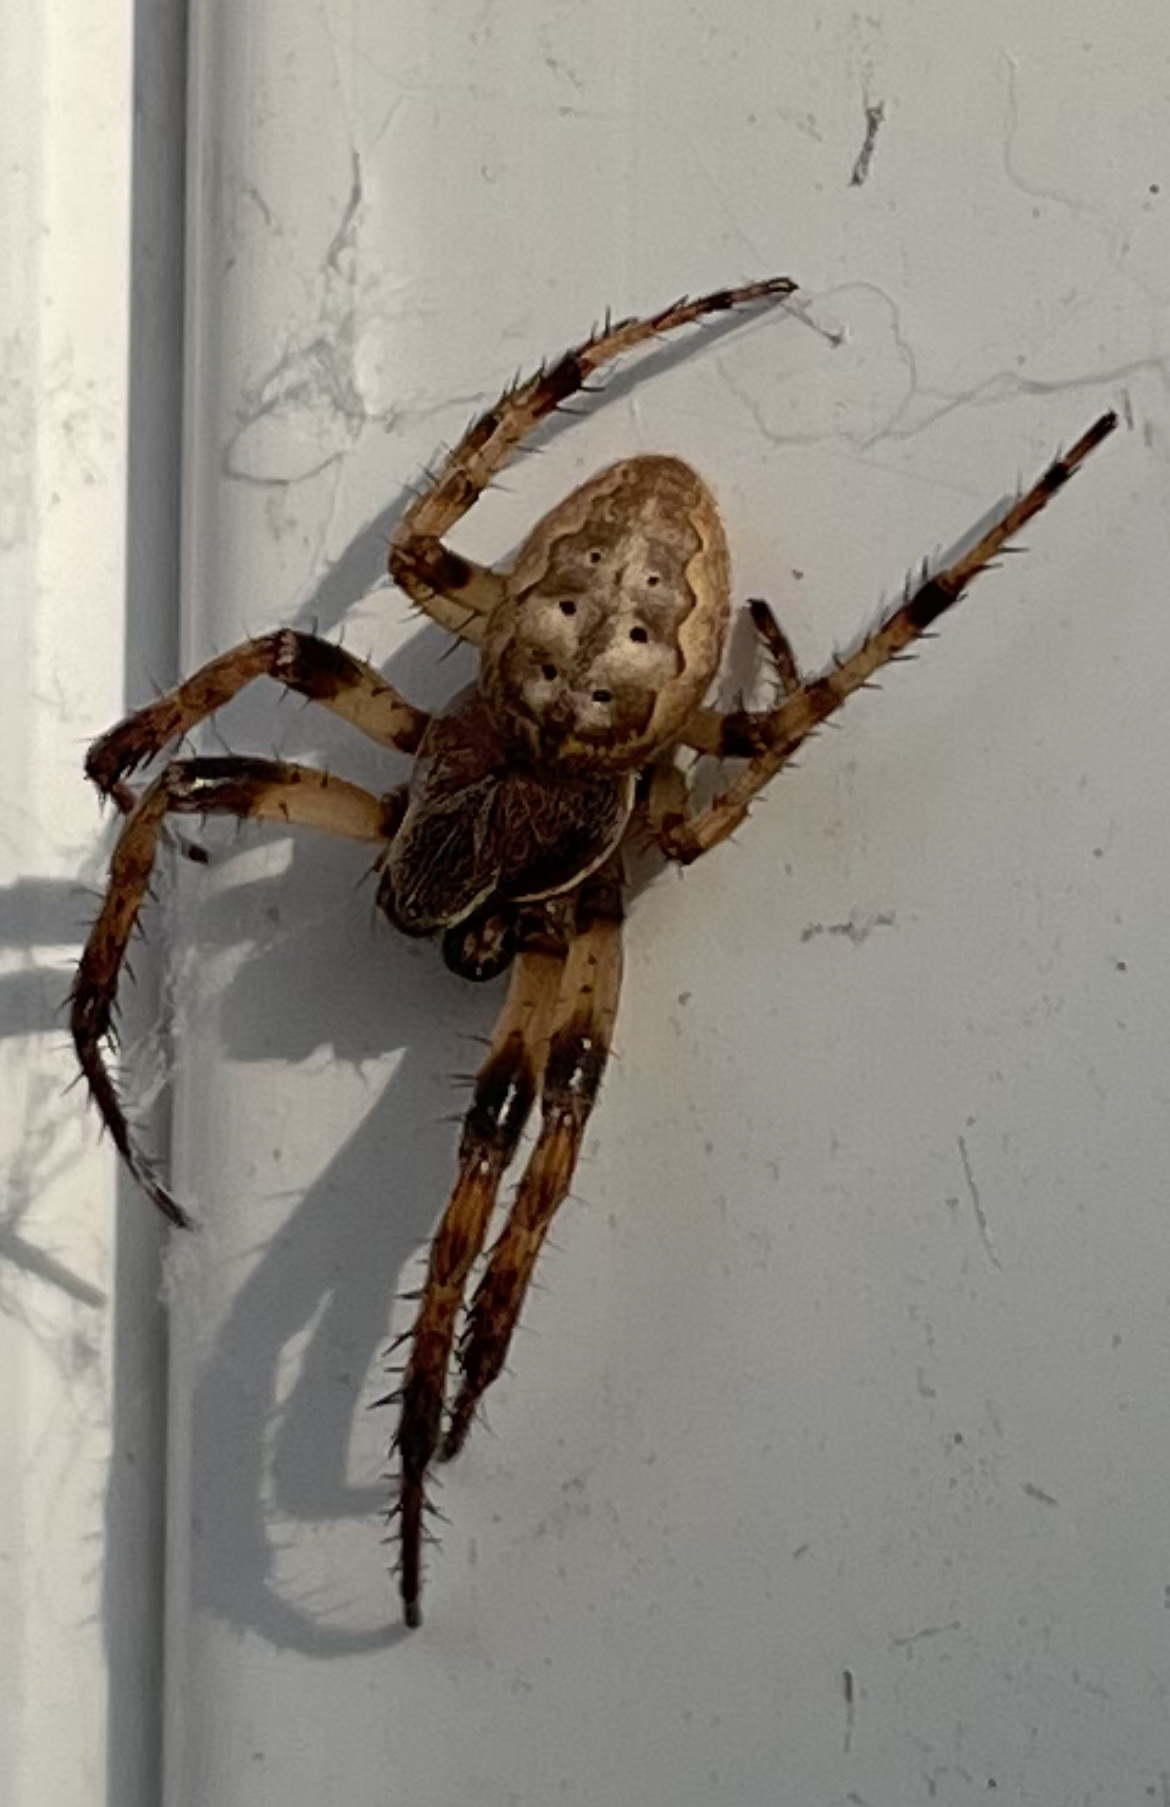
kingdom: Animalia
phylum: Arthropoda
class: Arachnida
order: Araneae
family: Araneidae
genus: Larinioides
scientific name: Larinioides cornutus
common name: Furrow orbweaver
